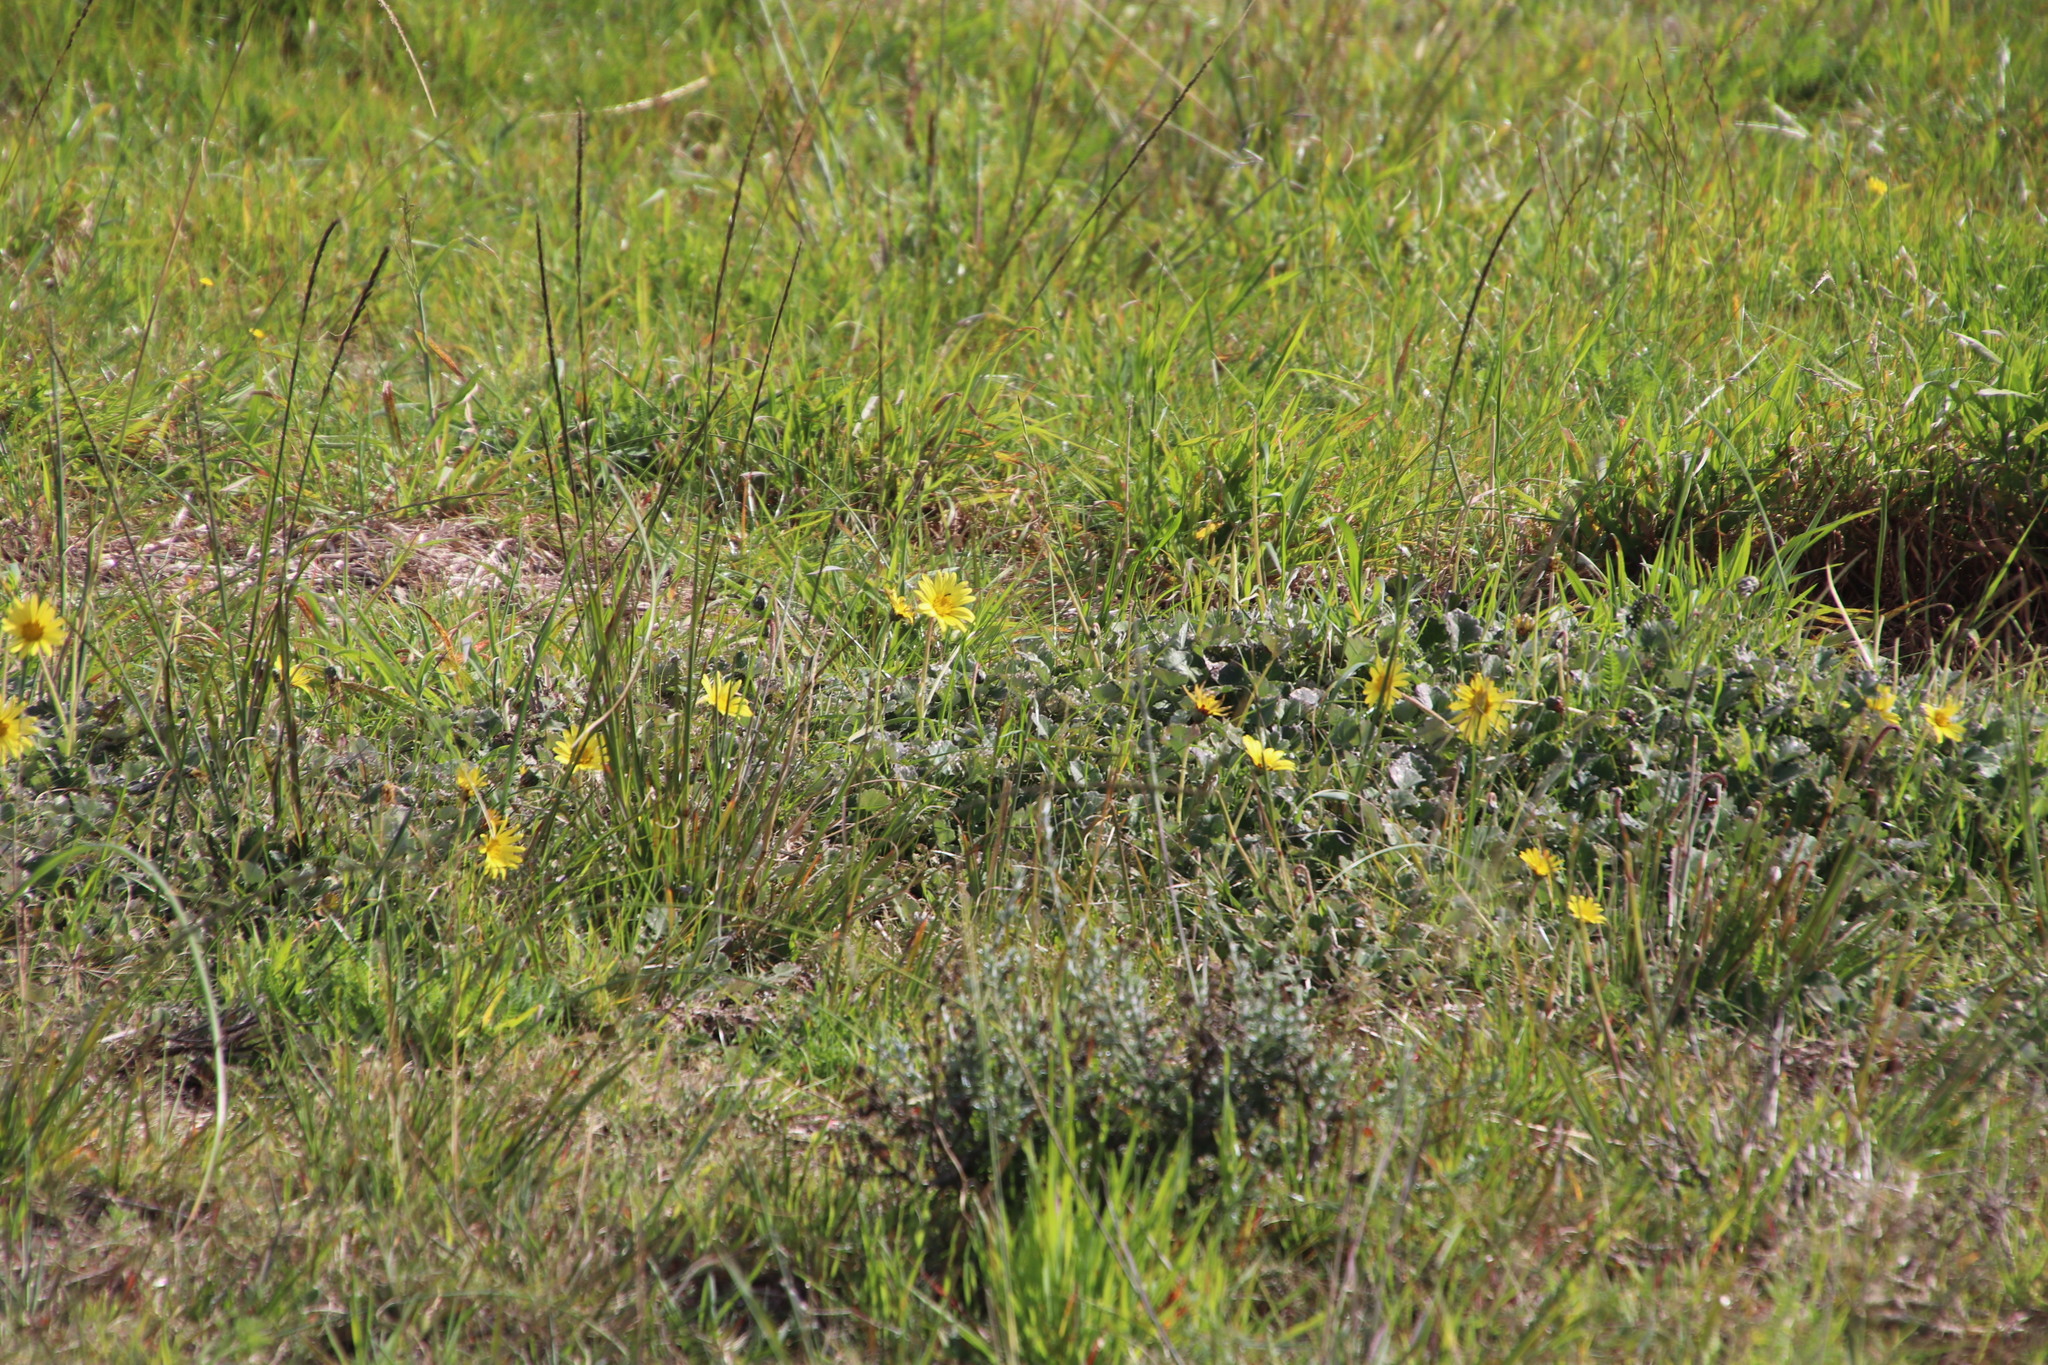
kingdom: Plantae
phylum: Tracheophyta
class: Magnoliopsida
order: Asterales
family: Asteraceae
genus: Arctotheca
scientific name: Arctotheca prostrata
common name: Capeweed
